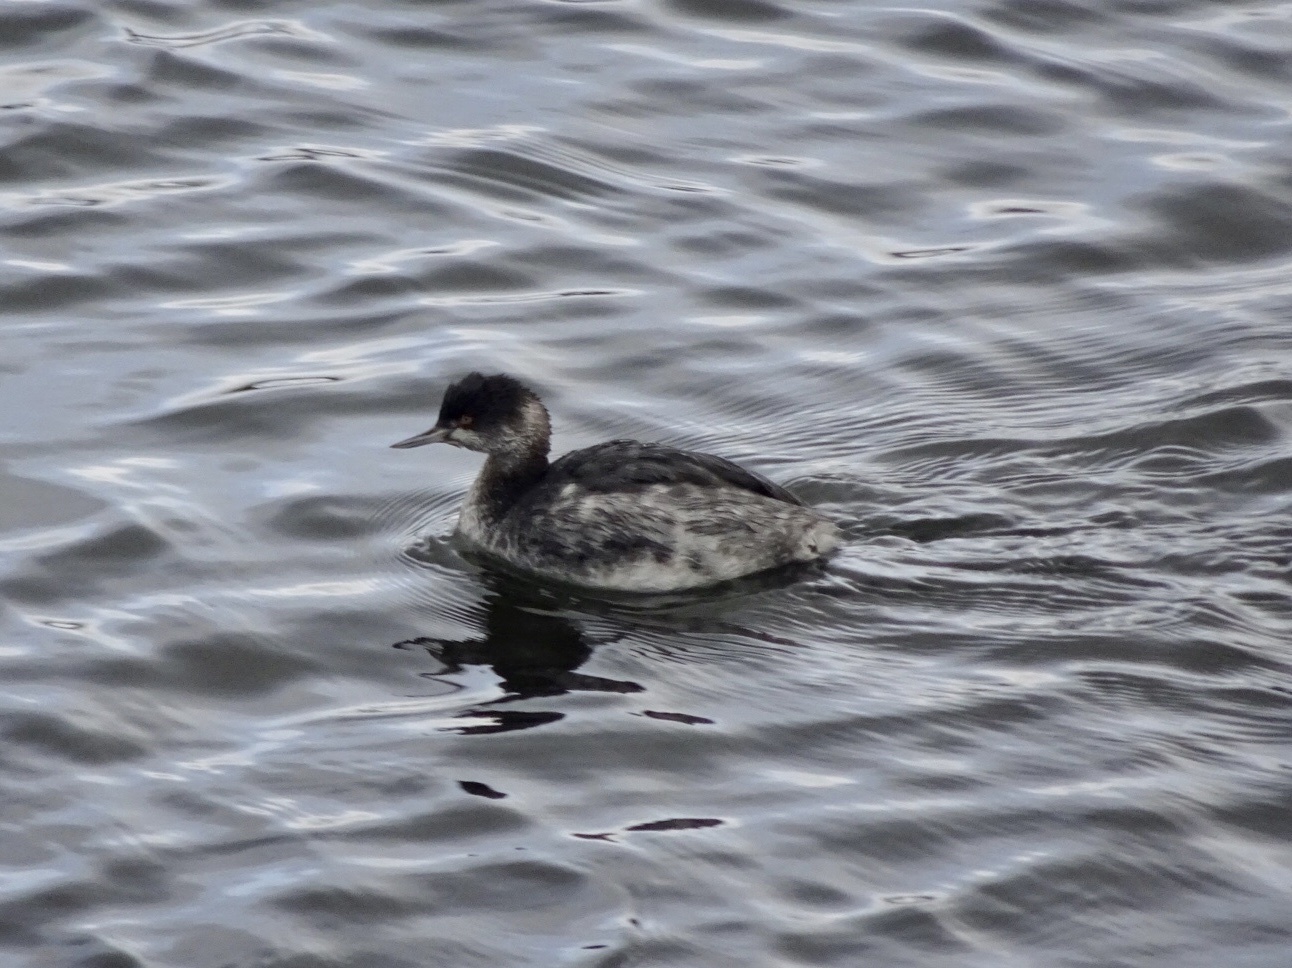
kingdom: Animalia
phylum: Chordata
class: Aves
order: Podicipediformes
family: Podicipedidae
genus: Podiceps
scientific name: Podiceps nigricollis
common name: Black-necked grebe
